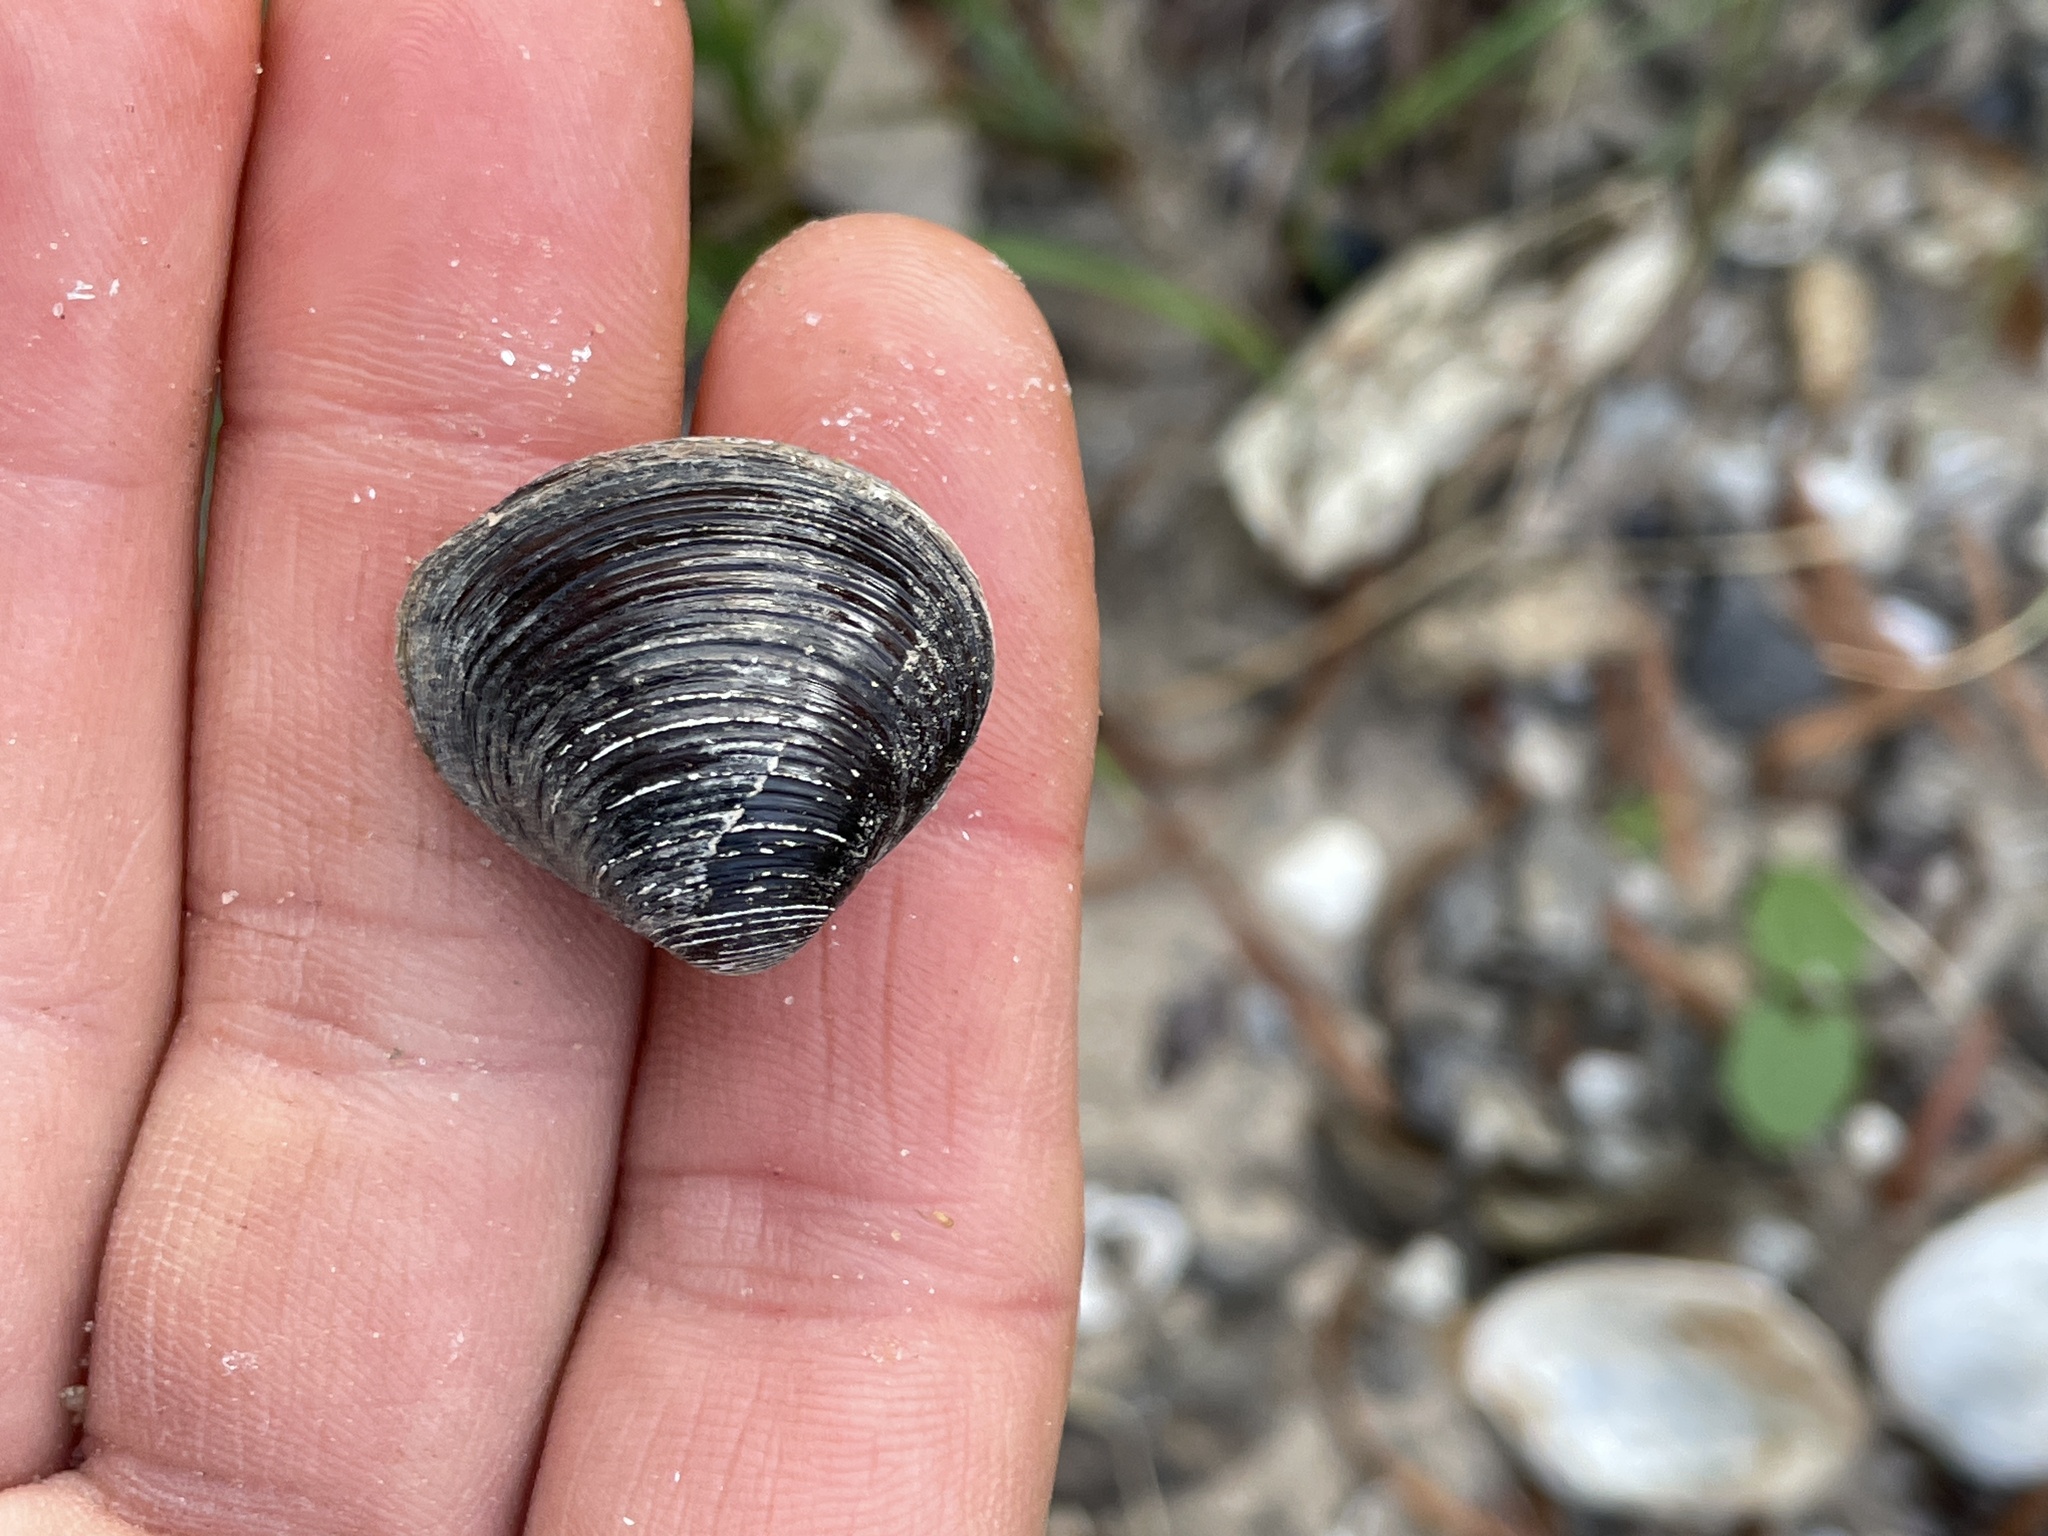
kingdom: Animalia
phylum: Mollusca
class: Bivalvia
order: Venerida
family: Cyrenidae
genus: Corbicula
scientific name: Corbicula fluminea
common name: Asian clam
